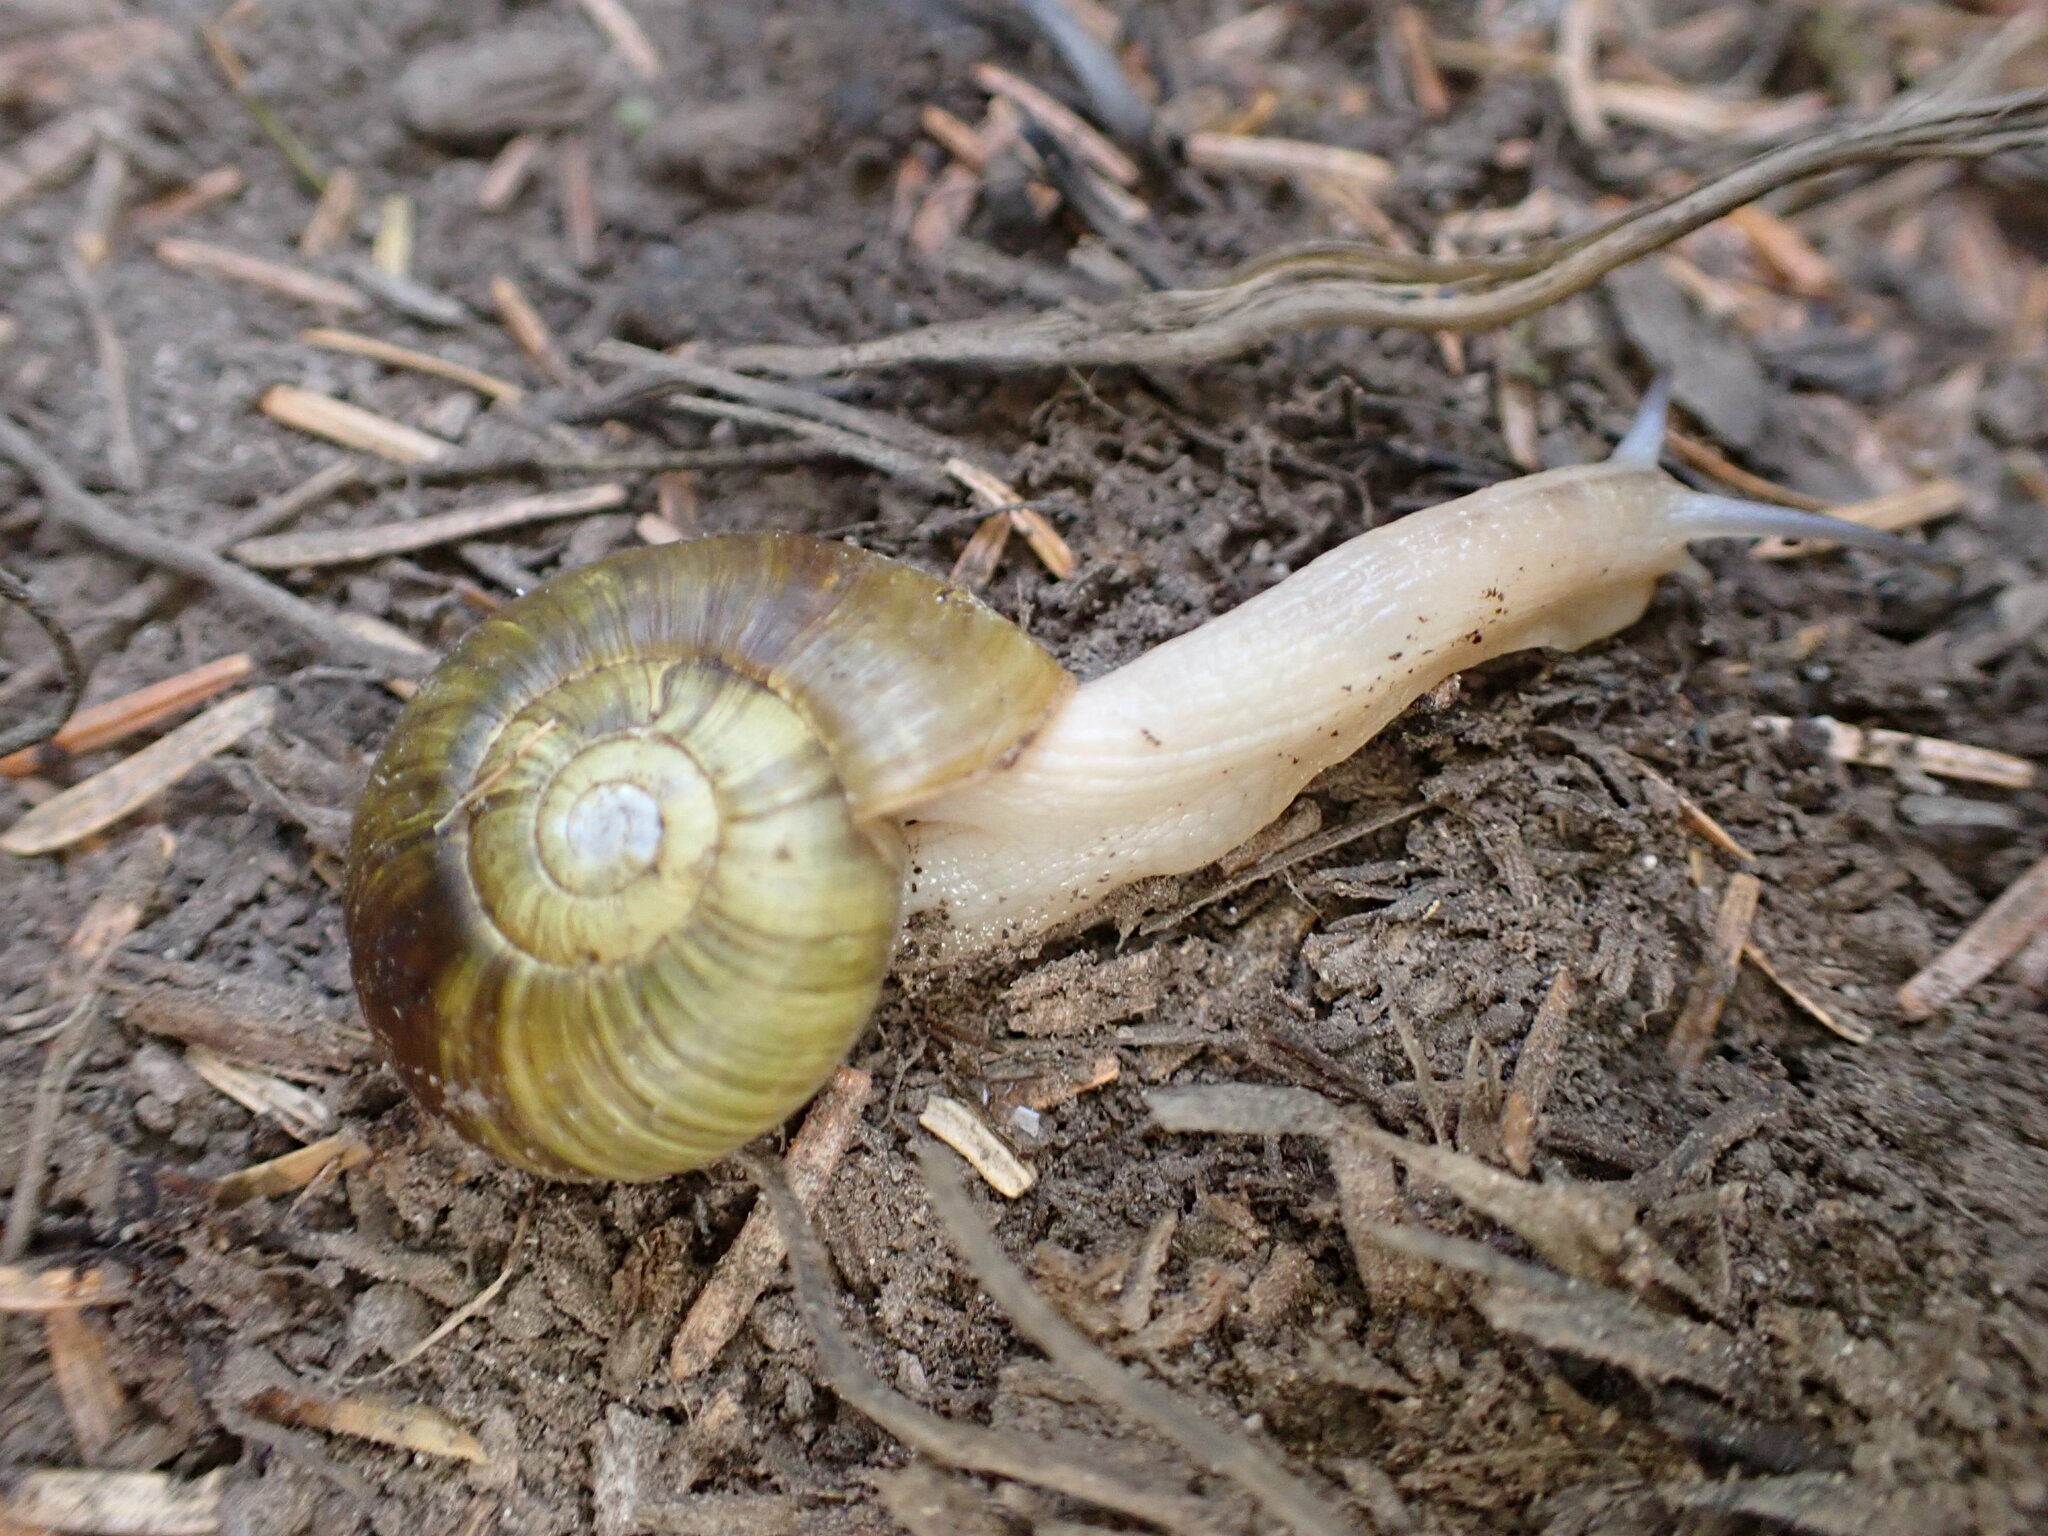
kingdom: Animalia
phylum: Mollusca
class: Gastropoda
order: Stylommatophora
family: Haplotrematidae
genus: Haplotrema
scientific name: Haplotrema vancouverense
